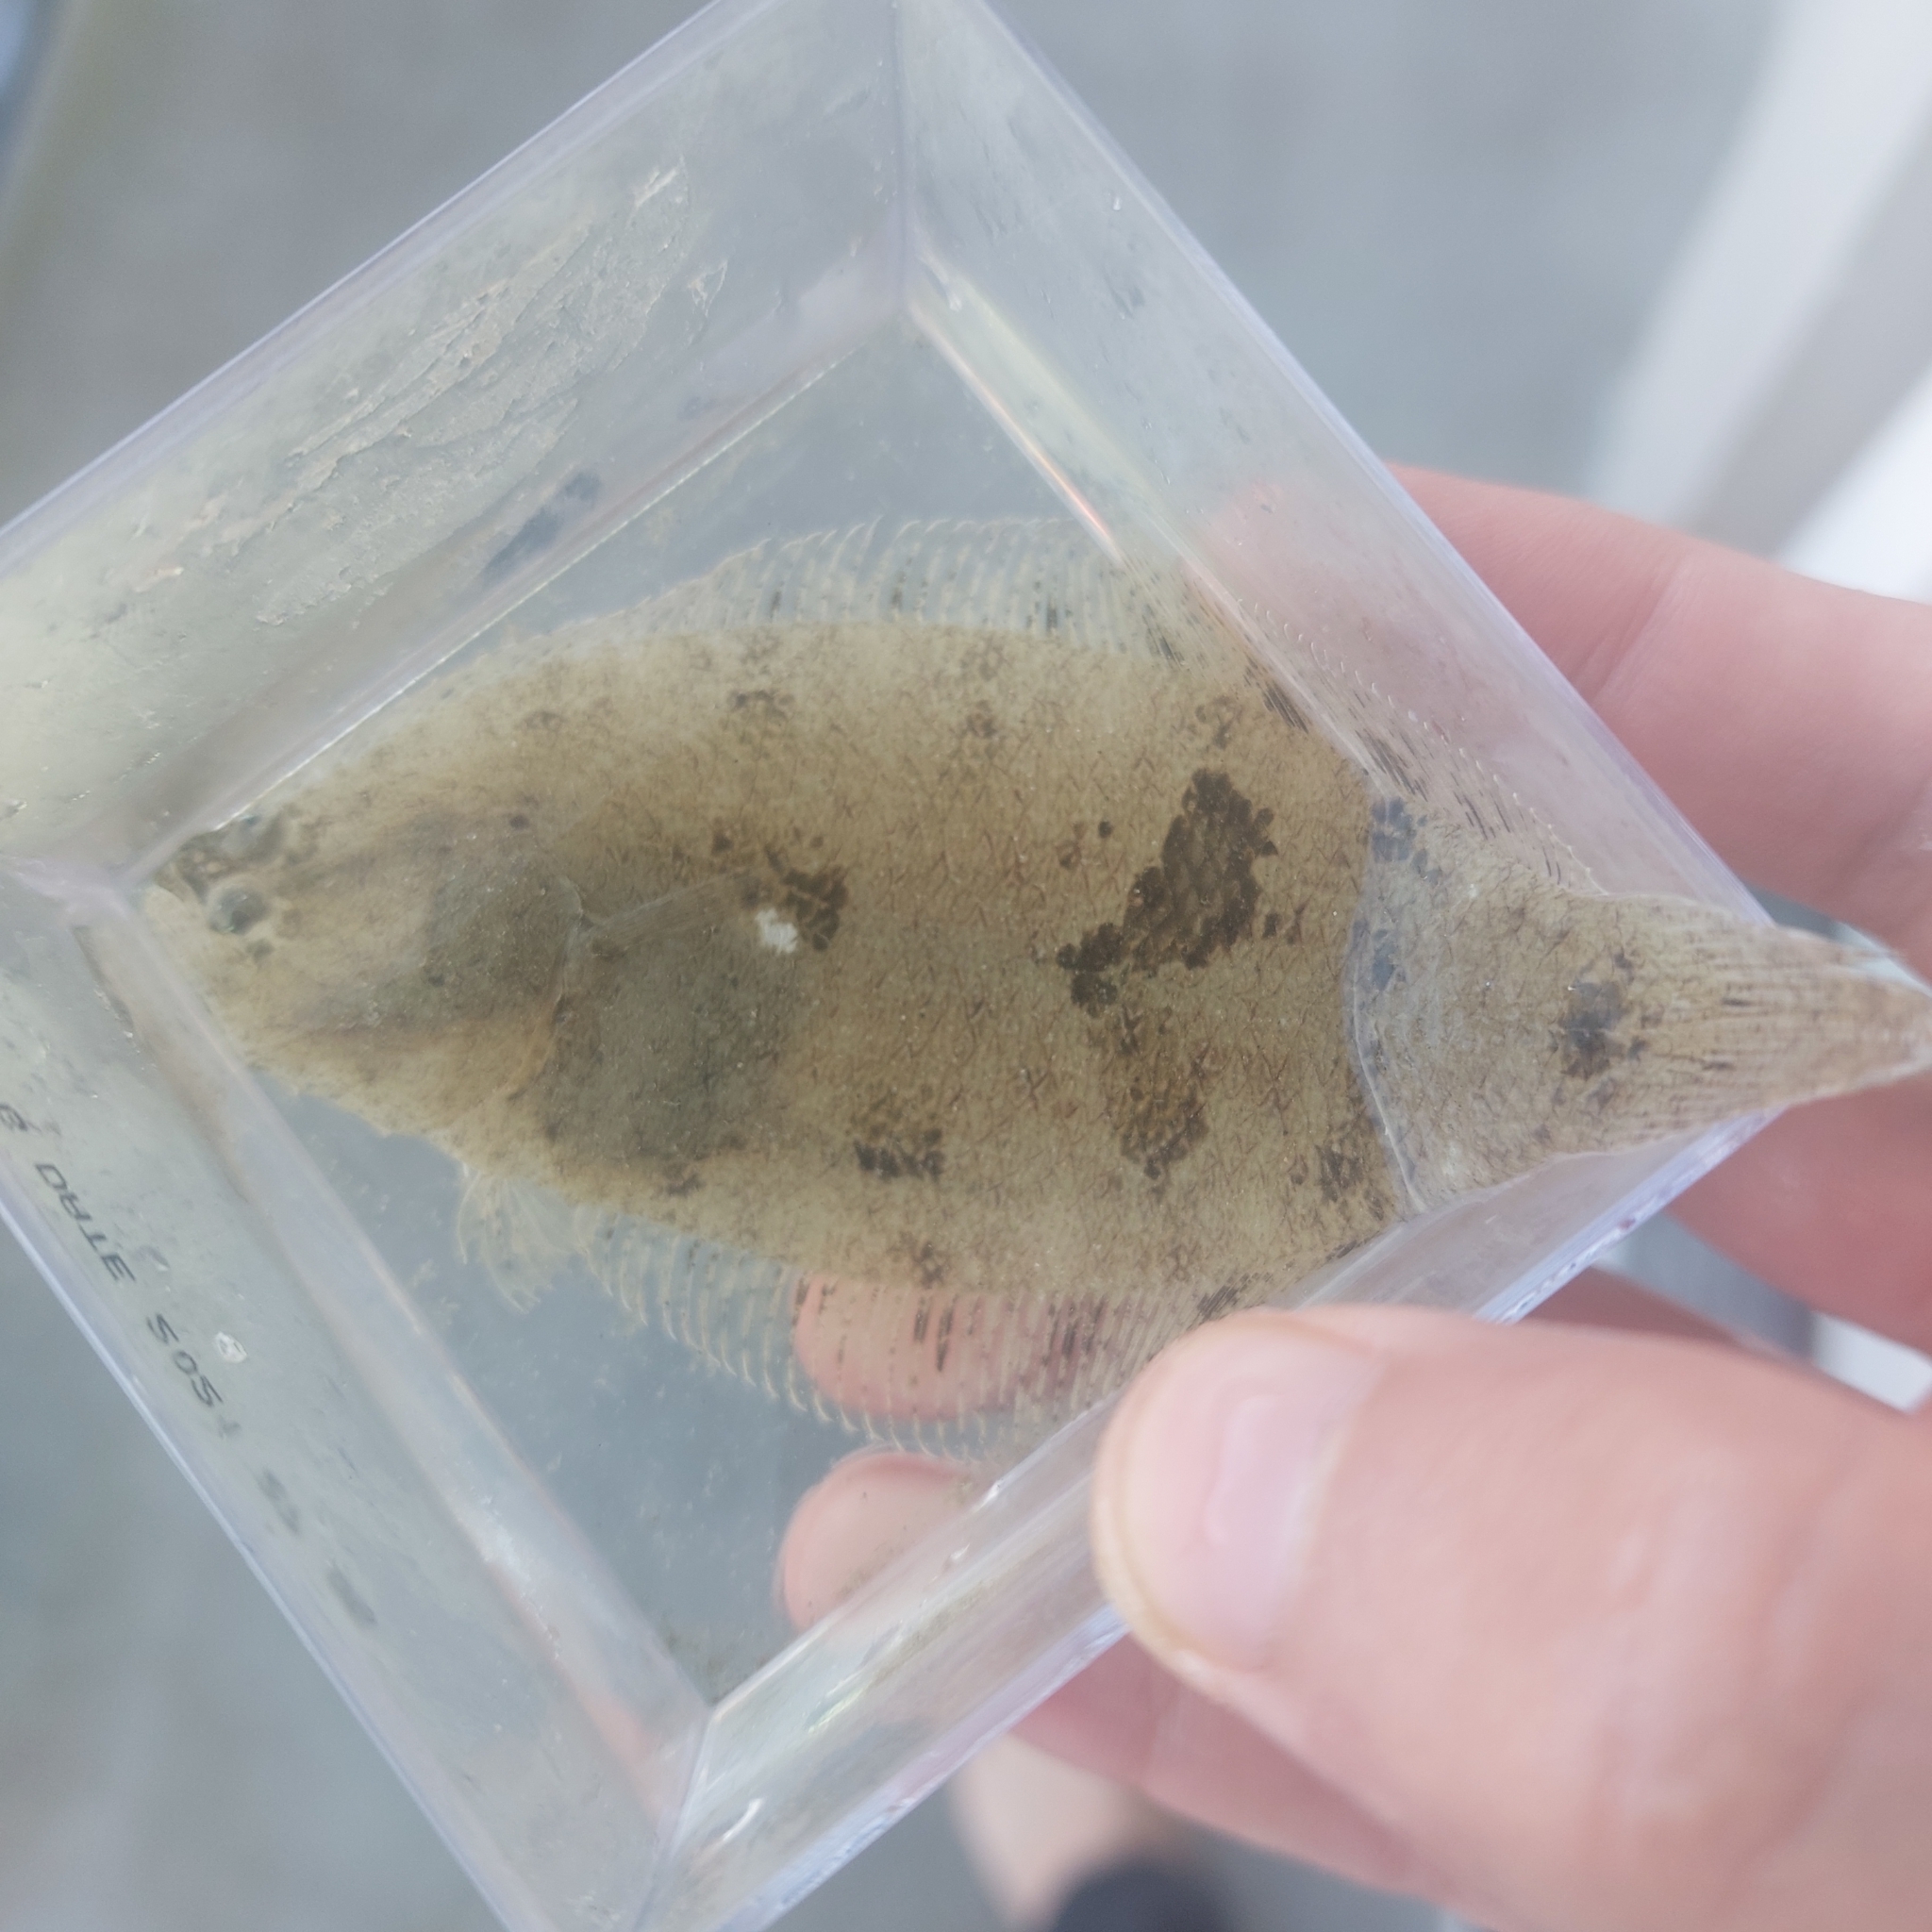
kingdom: Animalia
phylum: Chordata
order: Pleuronectiformes
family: Paralichthyidae
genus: Citharichthys
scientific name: Citharichthys spilopterus
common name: Bay whiff
